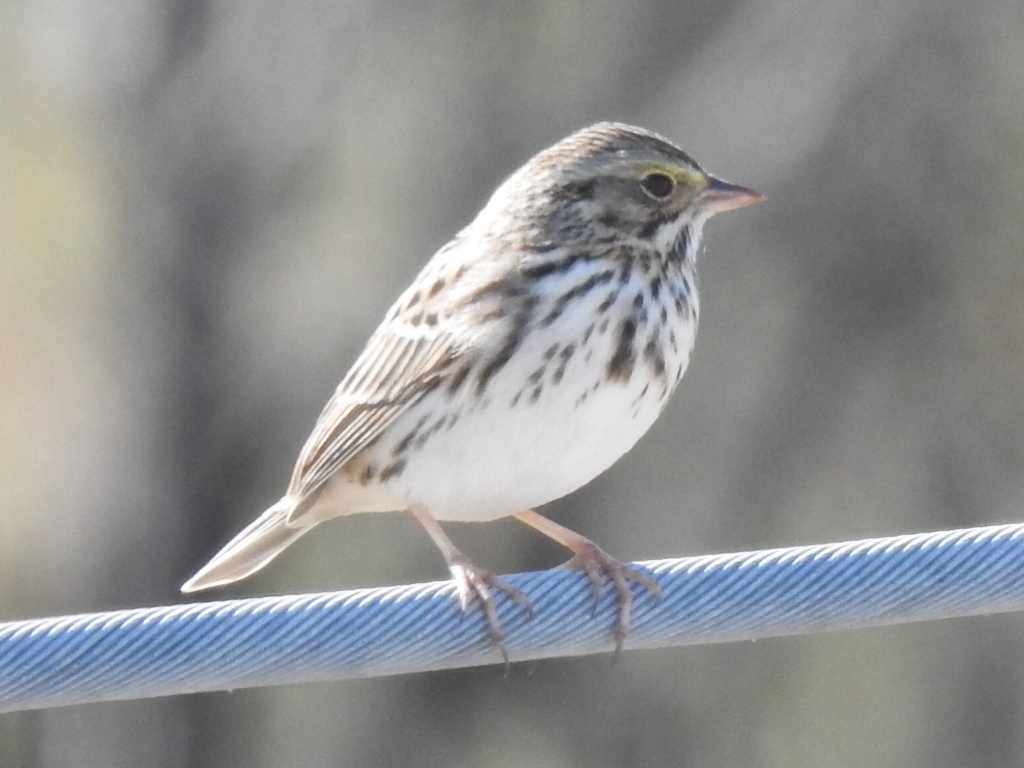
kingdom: Animalia
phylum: Chordata
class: Aves
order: Passeriformes
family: Passerellidae
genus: Passerculus
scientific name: Passerculus sandwichensis
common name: Savannah sparrow
